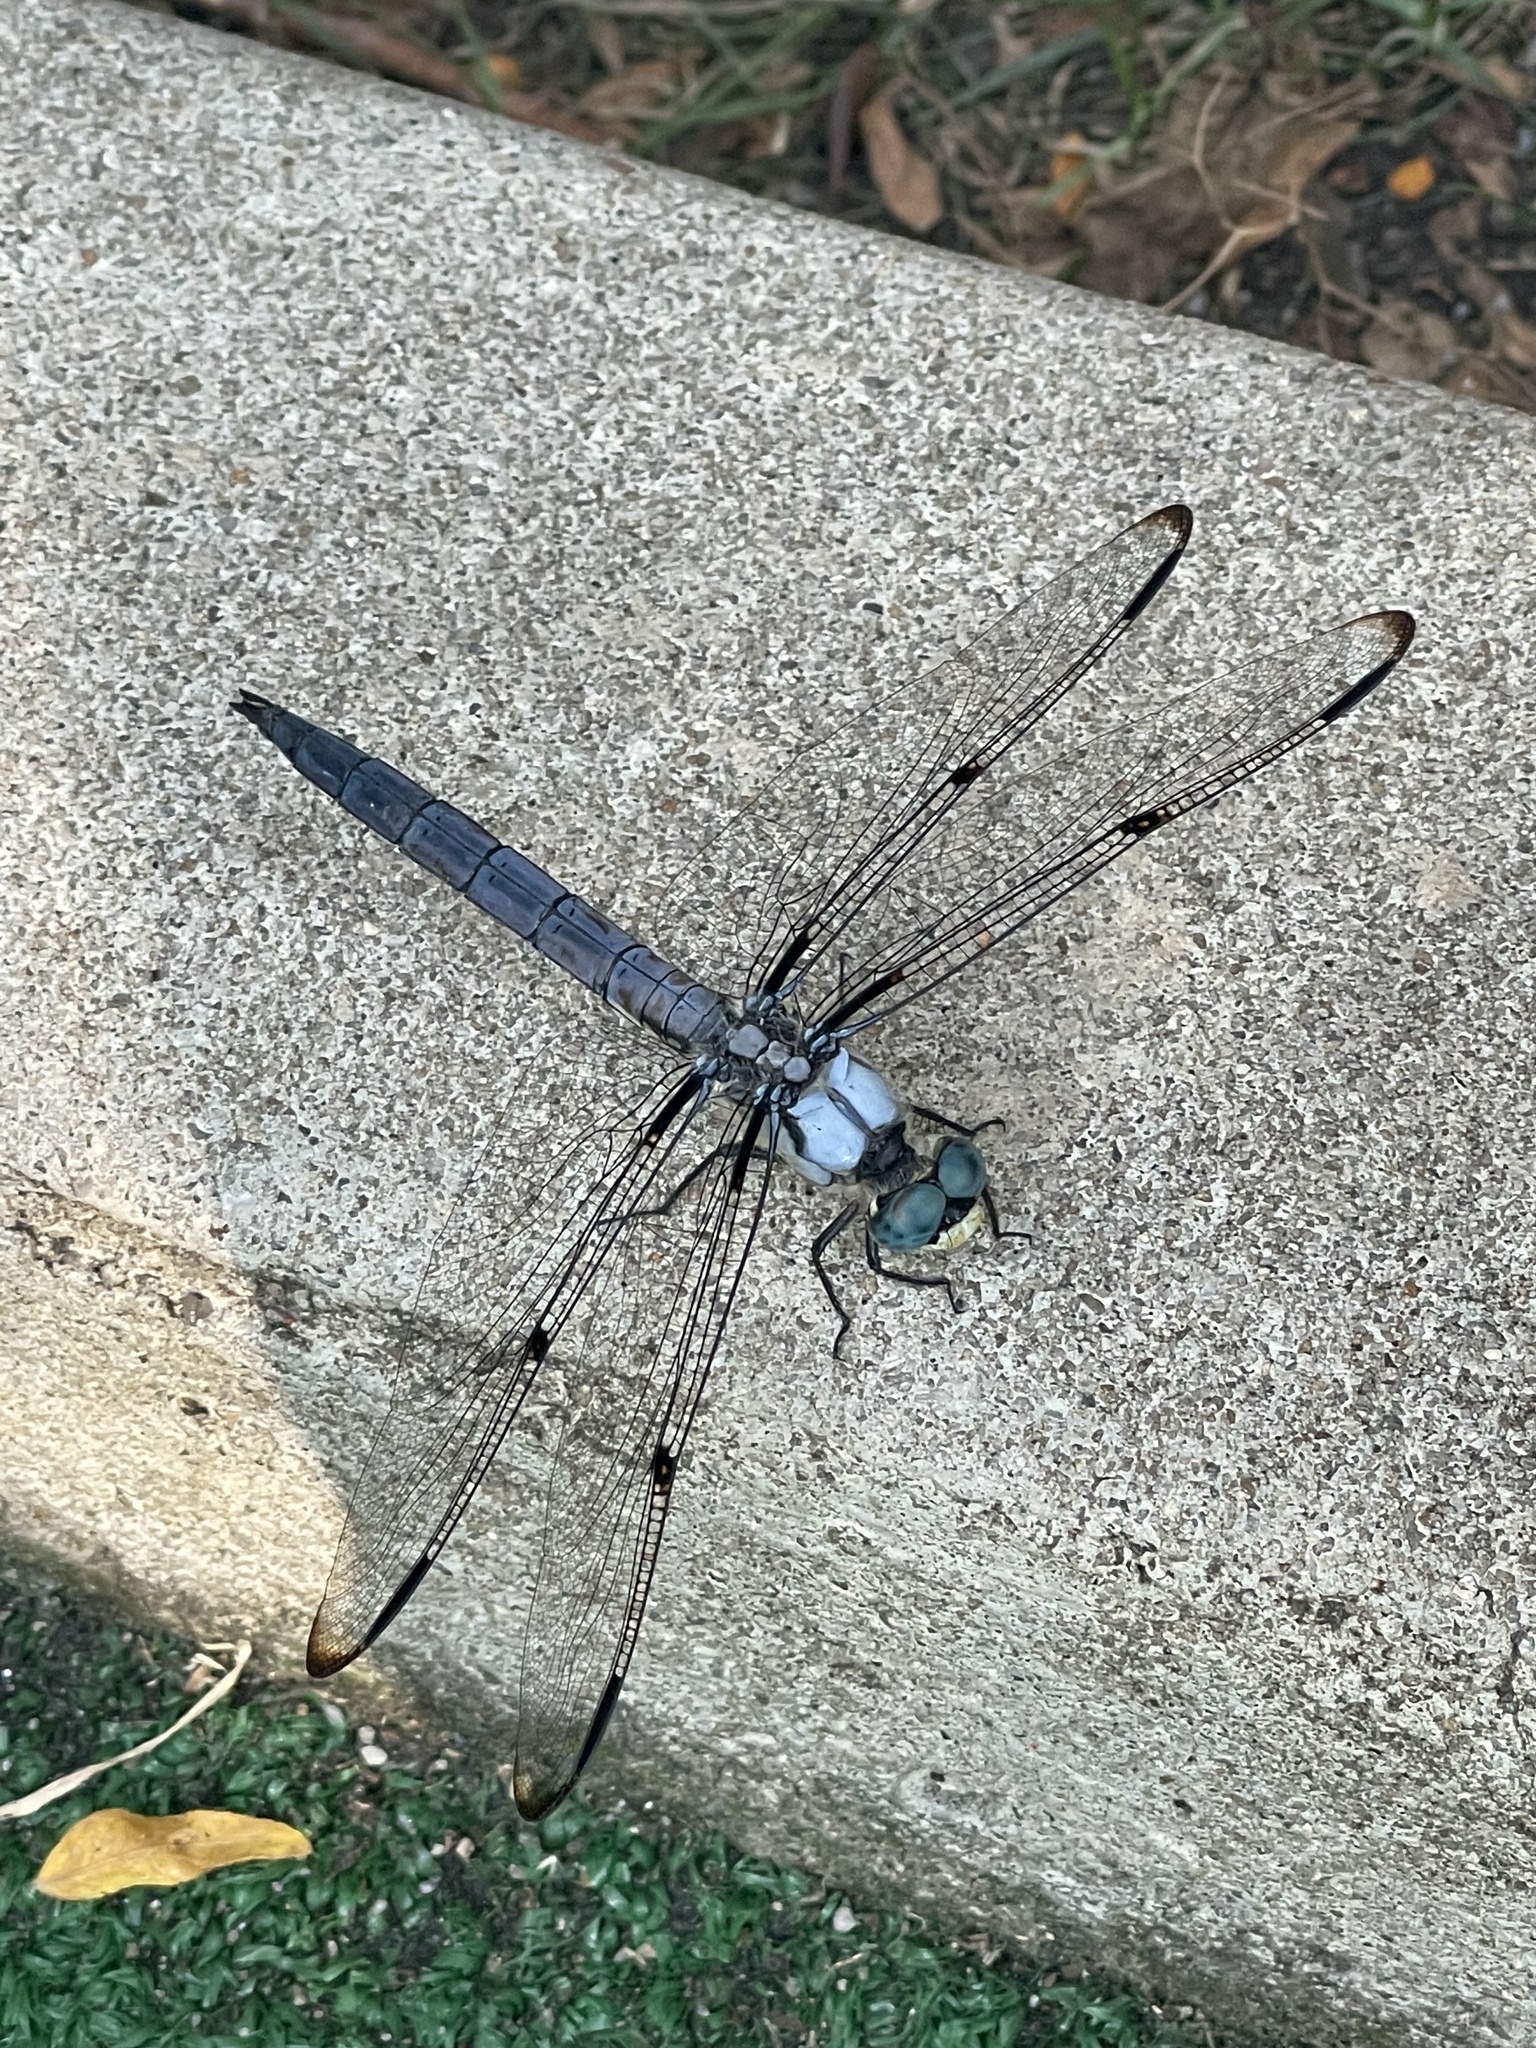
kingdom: Animalia
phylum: Arthropoda
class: Insecta
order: Odonata
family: Libellulidae
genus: Libellula
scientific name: Libellula vibrans
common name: Great blue skimmer
